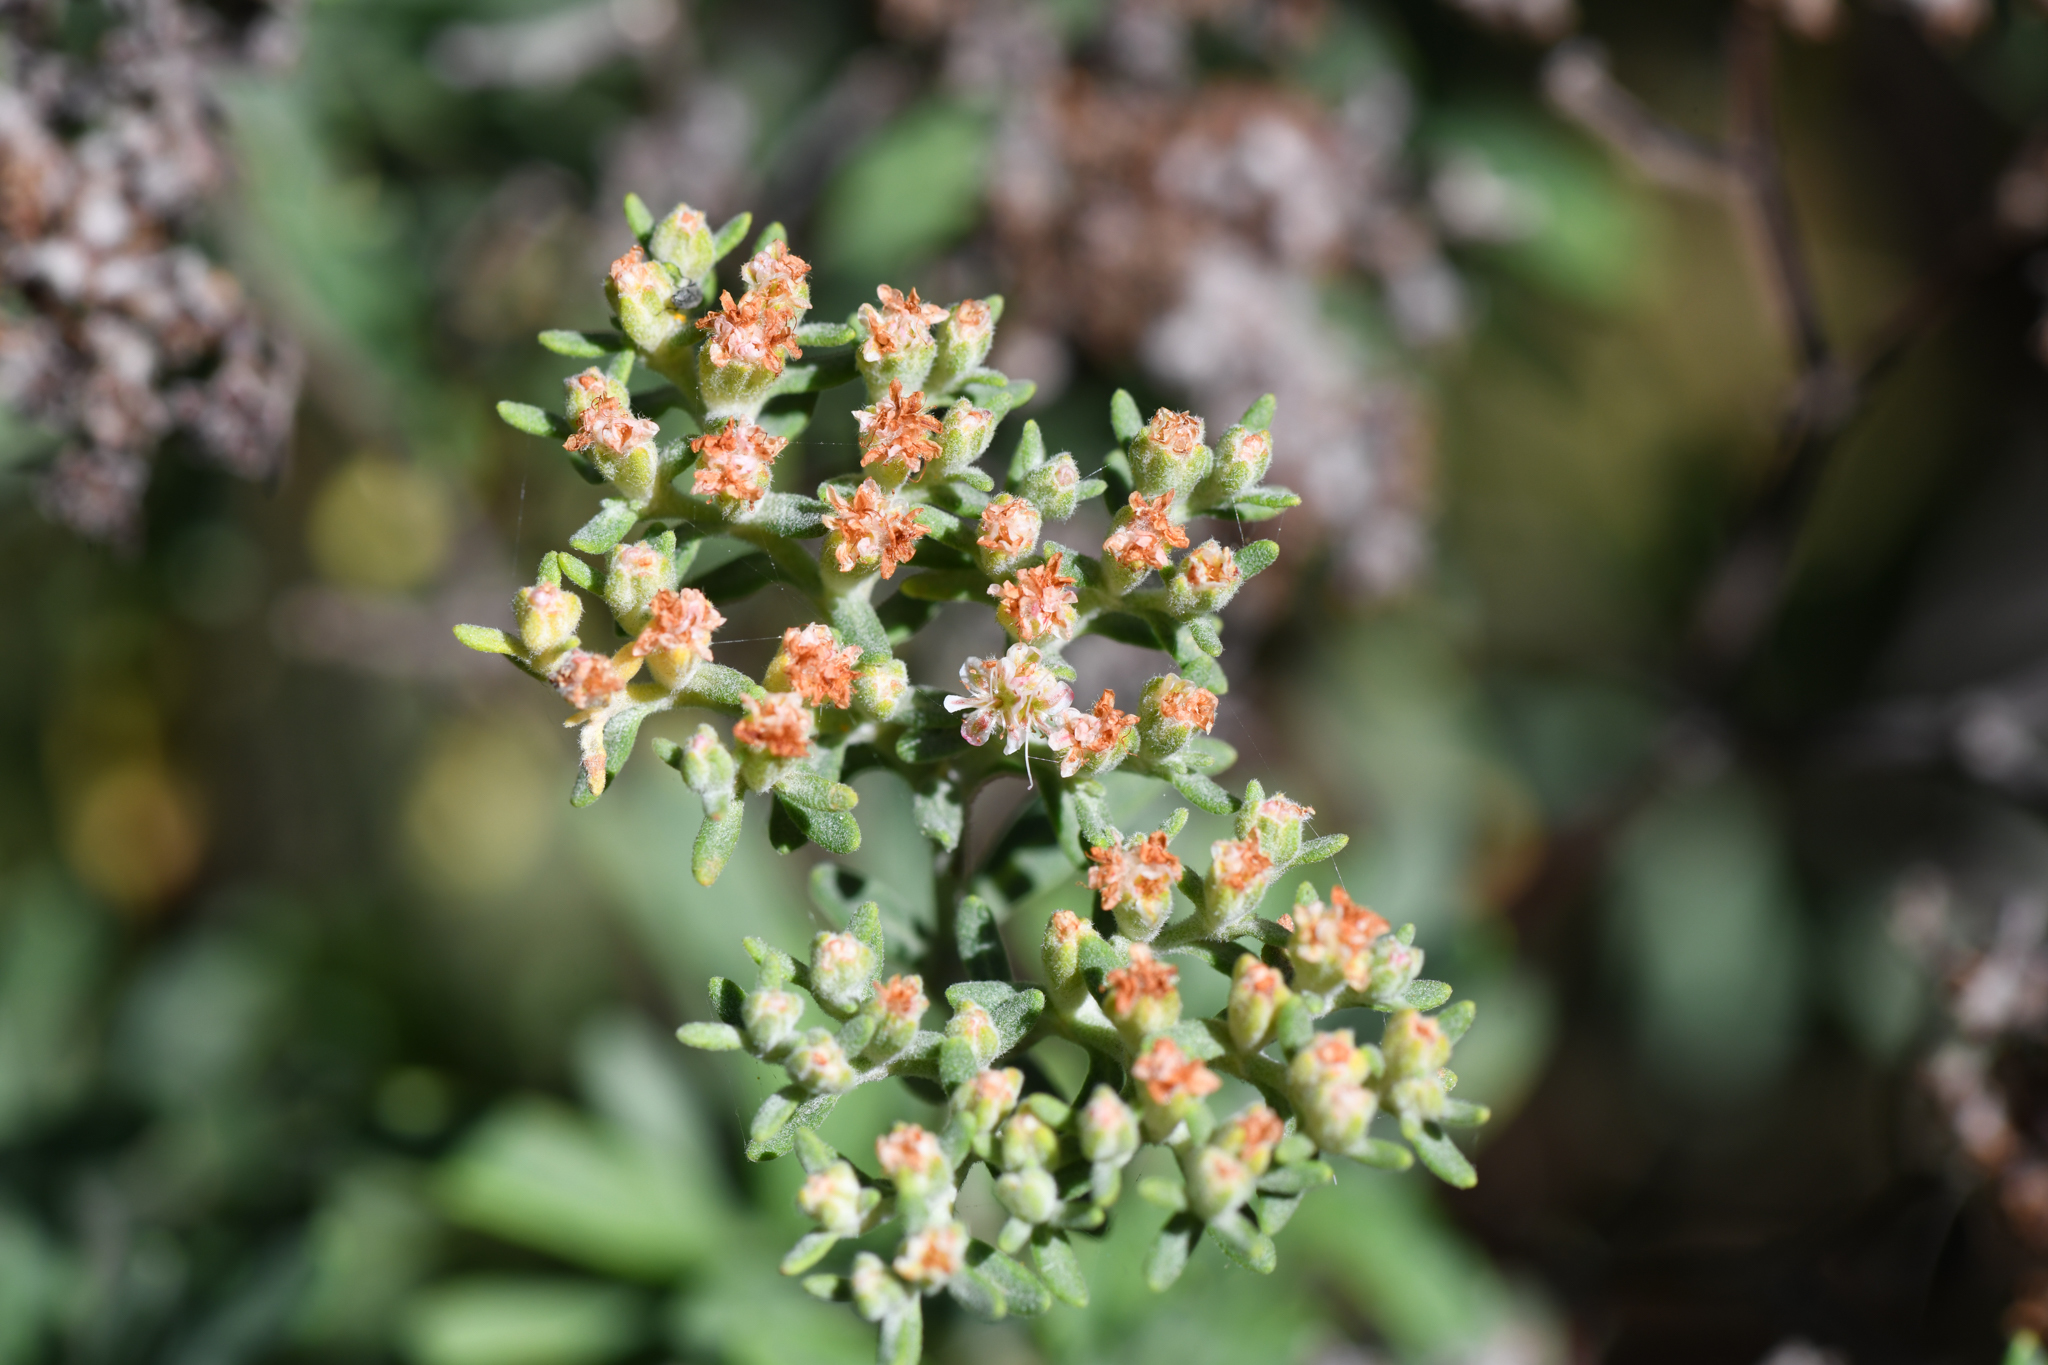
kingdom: Plantae
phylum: Tracheophyta
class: Magnoliopsida
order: Caryophyllales
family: Polygonaceae
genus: Eriogonum
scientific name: Eriogonum arborescens
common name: Island buckwheat
